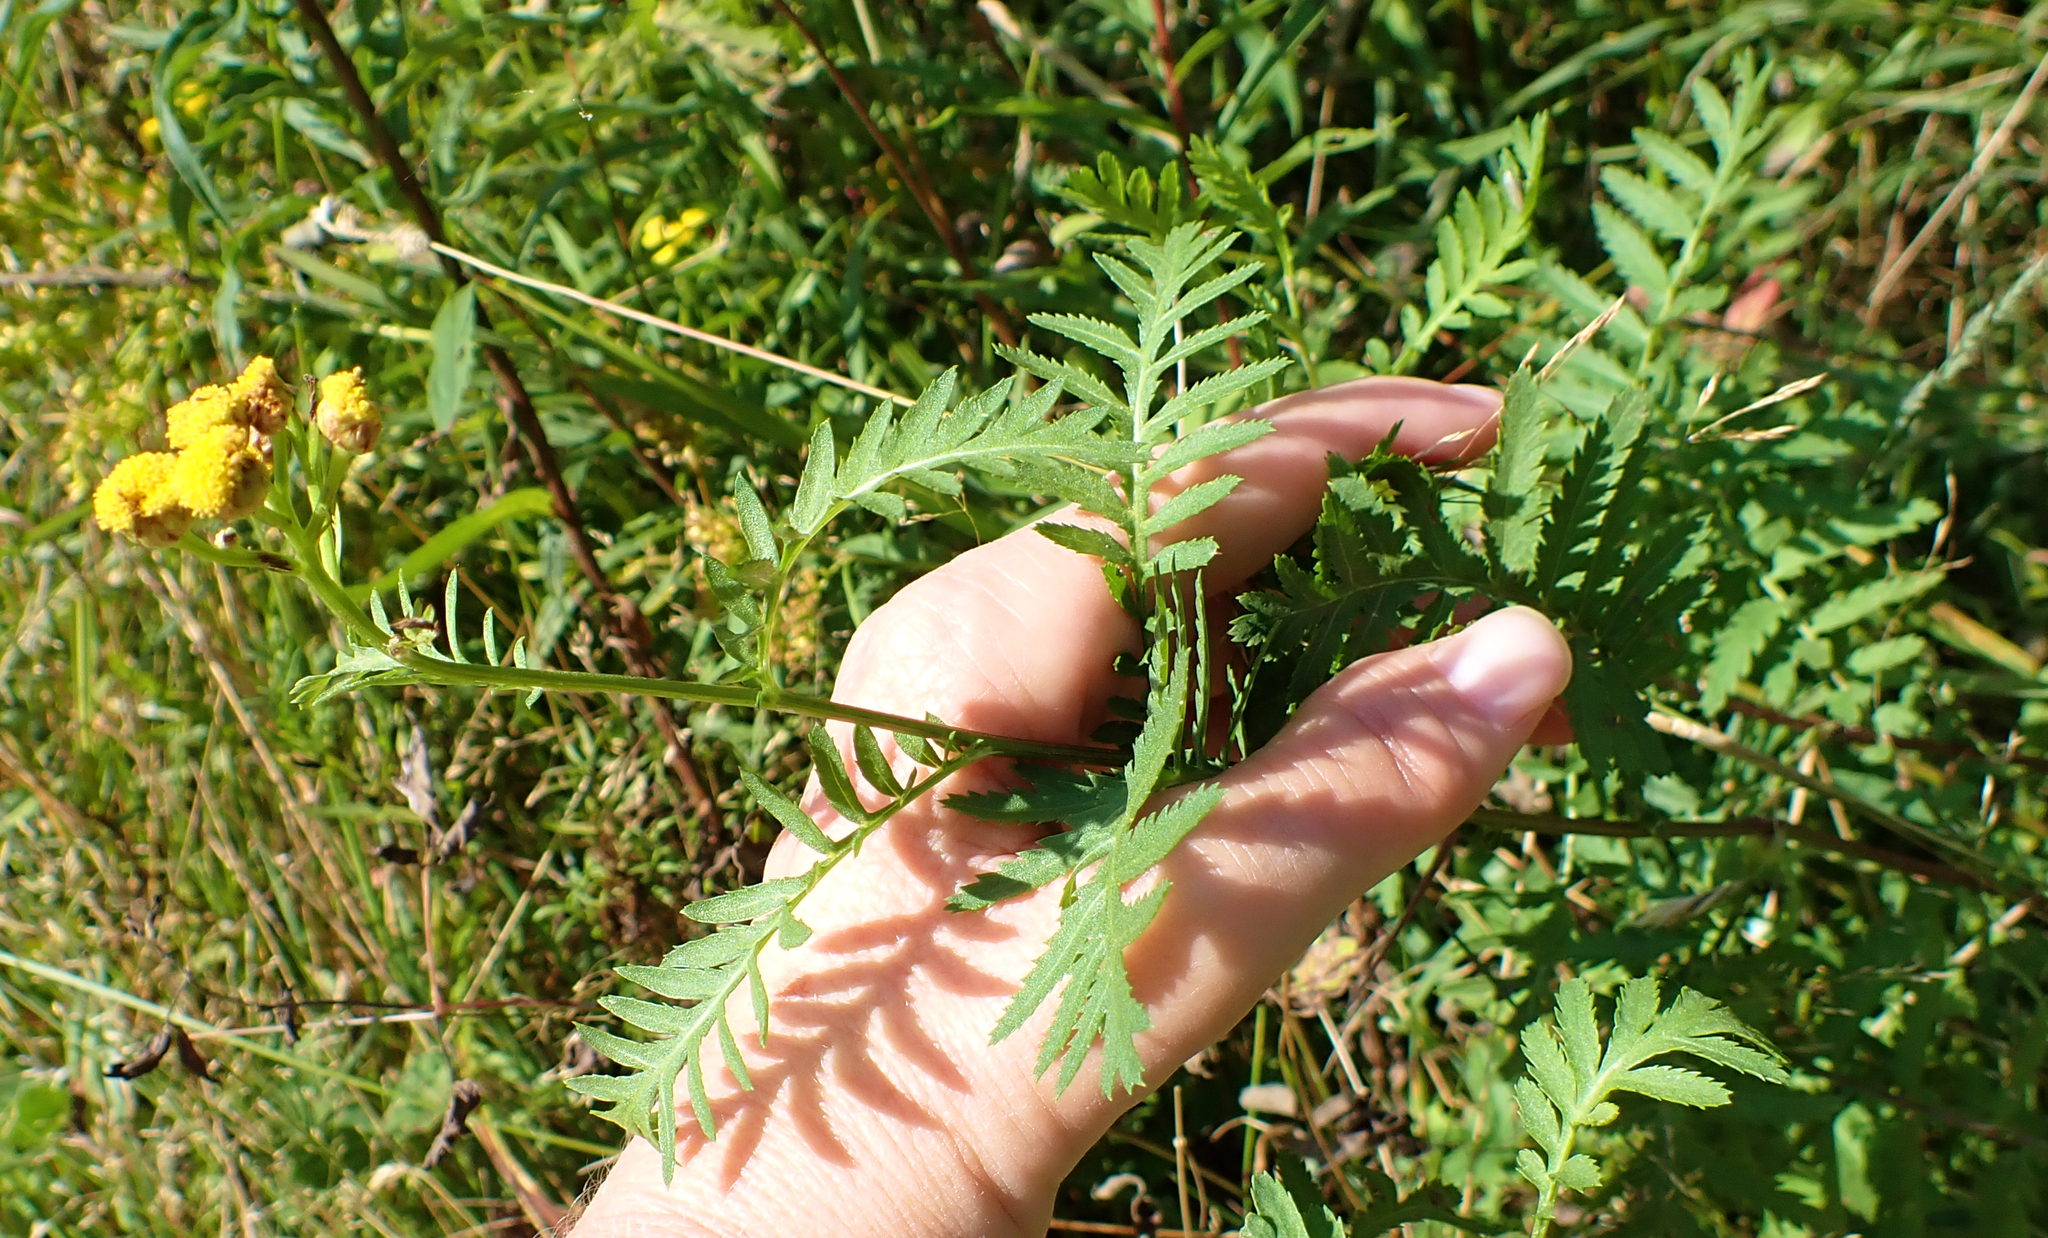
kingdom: Plantae
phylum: Tracheophyta
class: Magnoliopsida
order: Asterales
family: Asteraceae
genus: Tanacetum
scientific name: Tanacetum vulgare
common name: Common tansy
